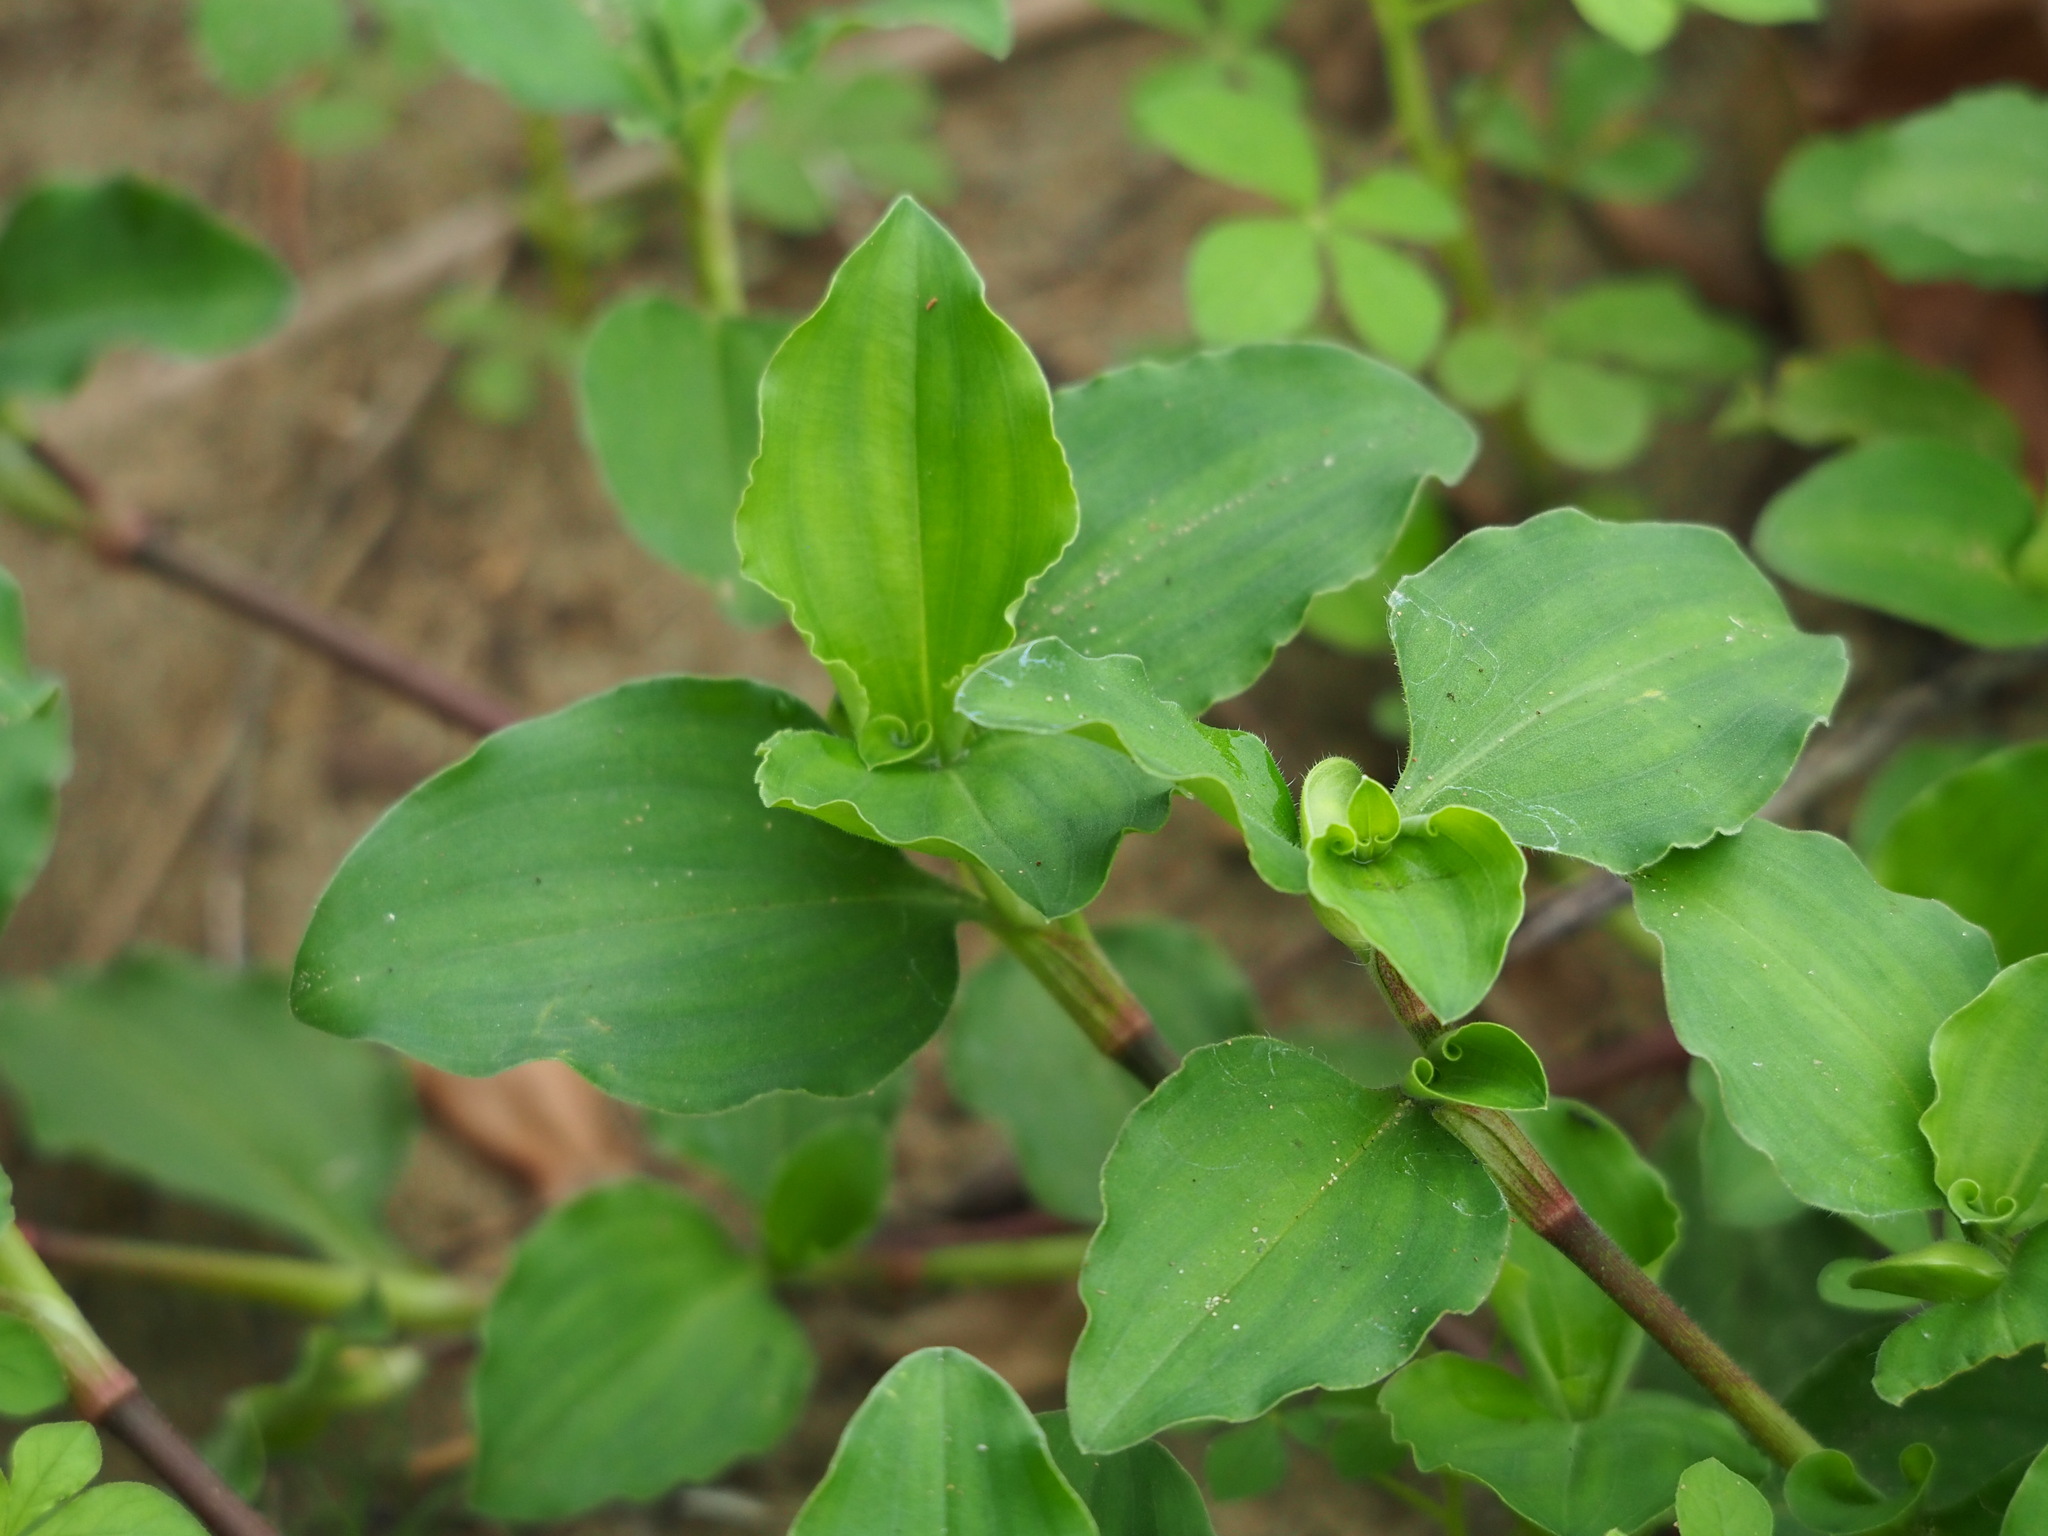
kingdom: Plantae
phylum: Tracheophyta
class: Liliopsida
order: Commelinales
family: Commelinaceae
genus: Commelina
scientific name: Commelina benghalensis
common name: Jio
